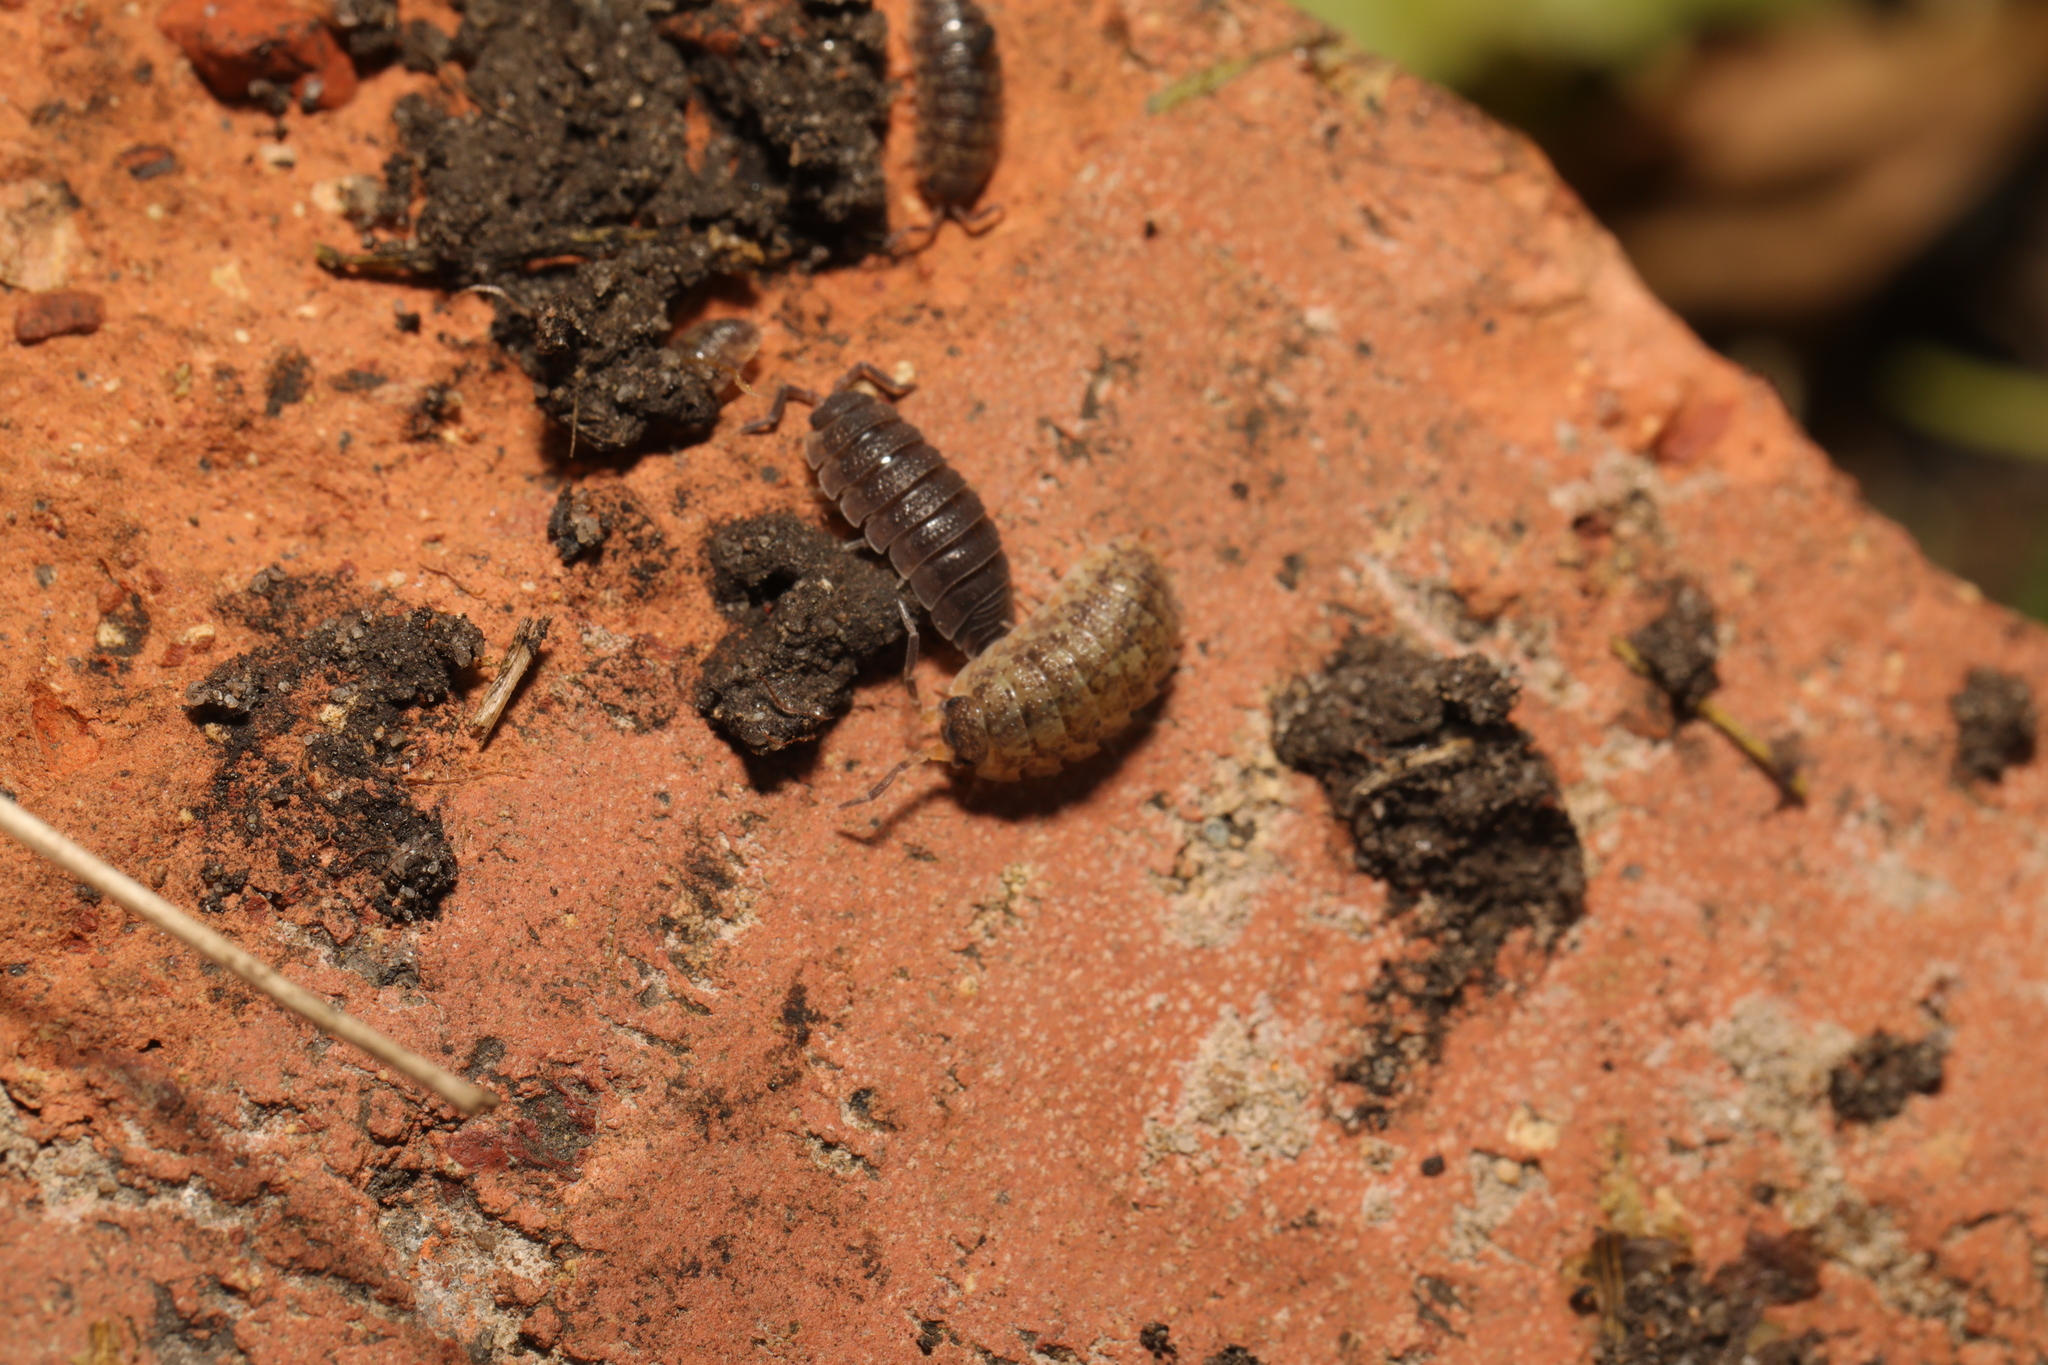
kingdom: Animalia
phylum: Arthropoda
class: Malacostraca
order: Isopoda
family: Porcellionidae
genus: Porcellio
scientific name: Porcellio scaber
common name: Common rough woodlouse
